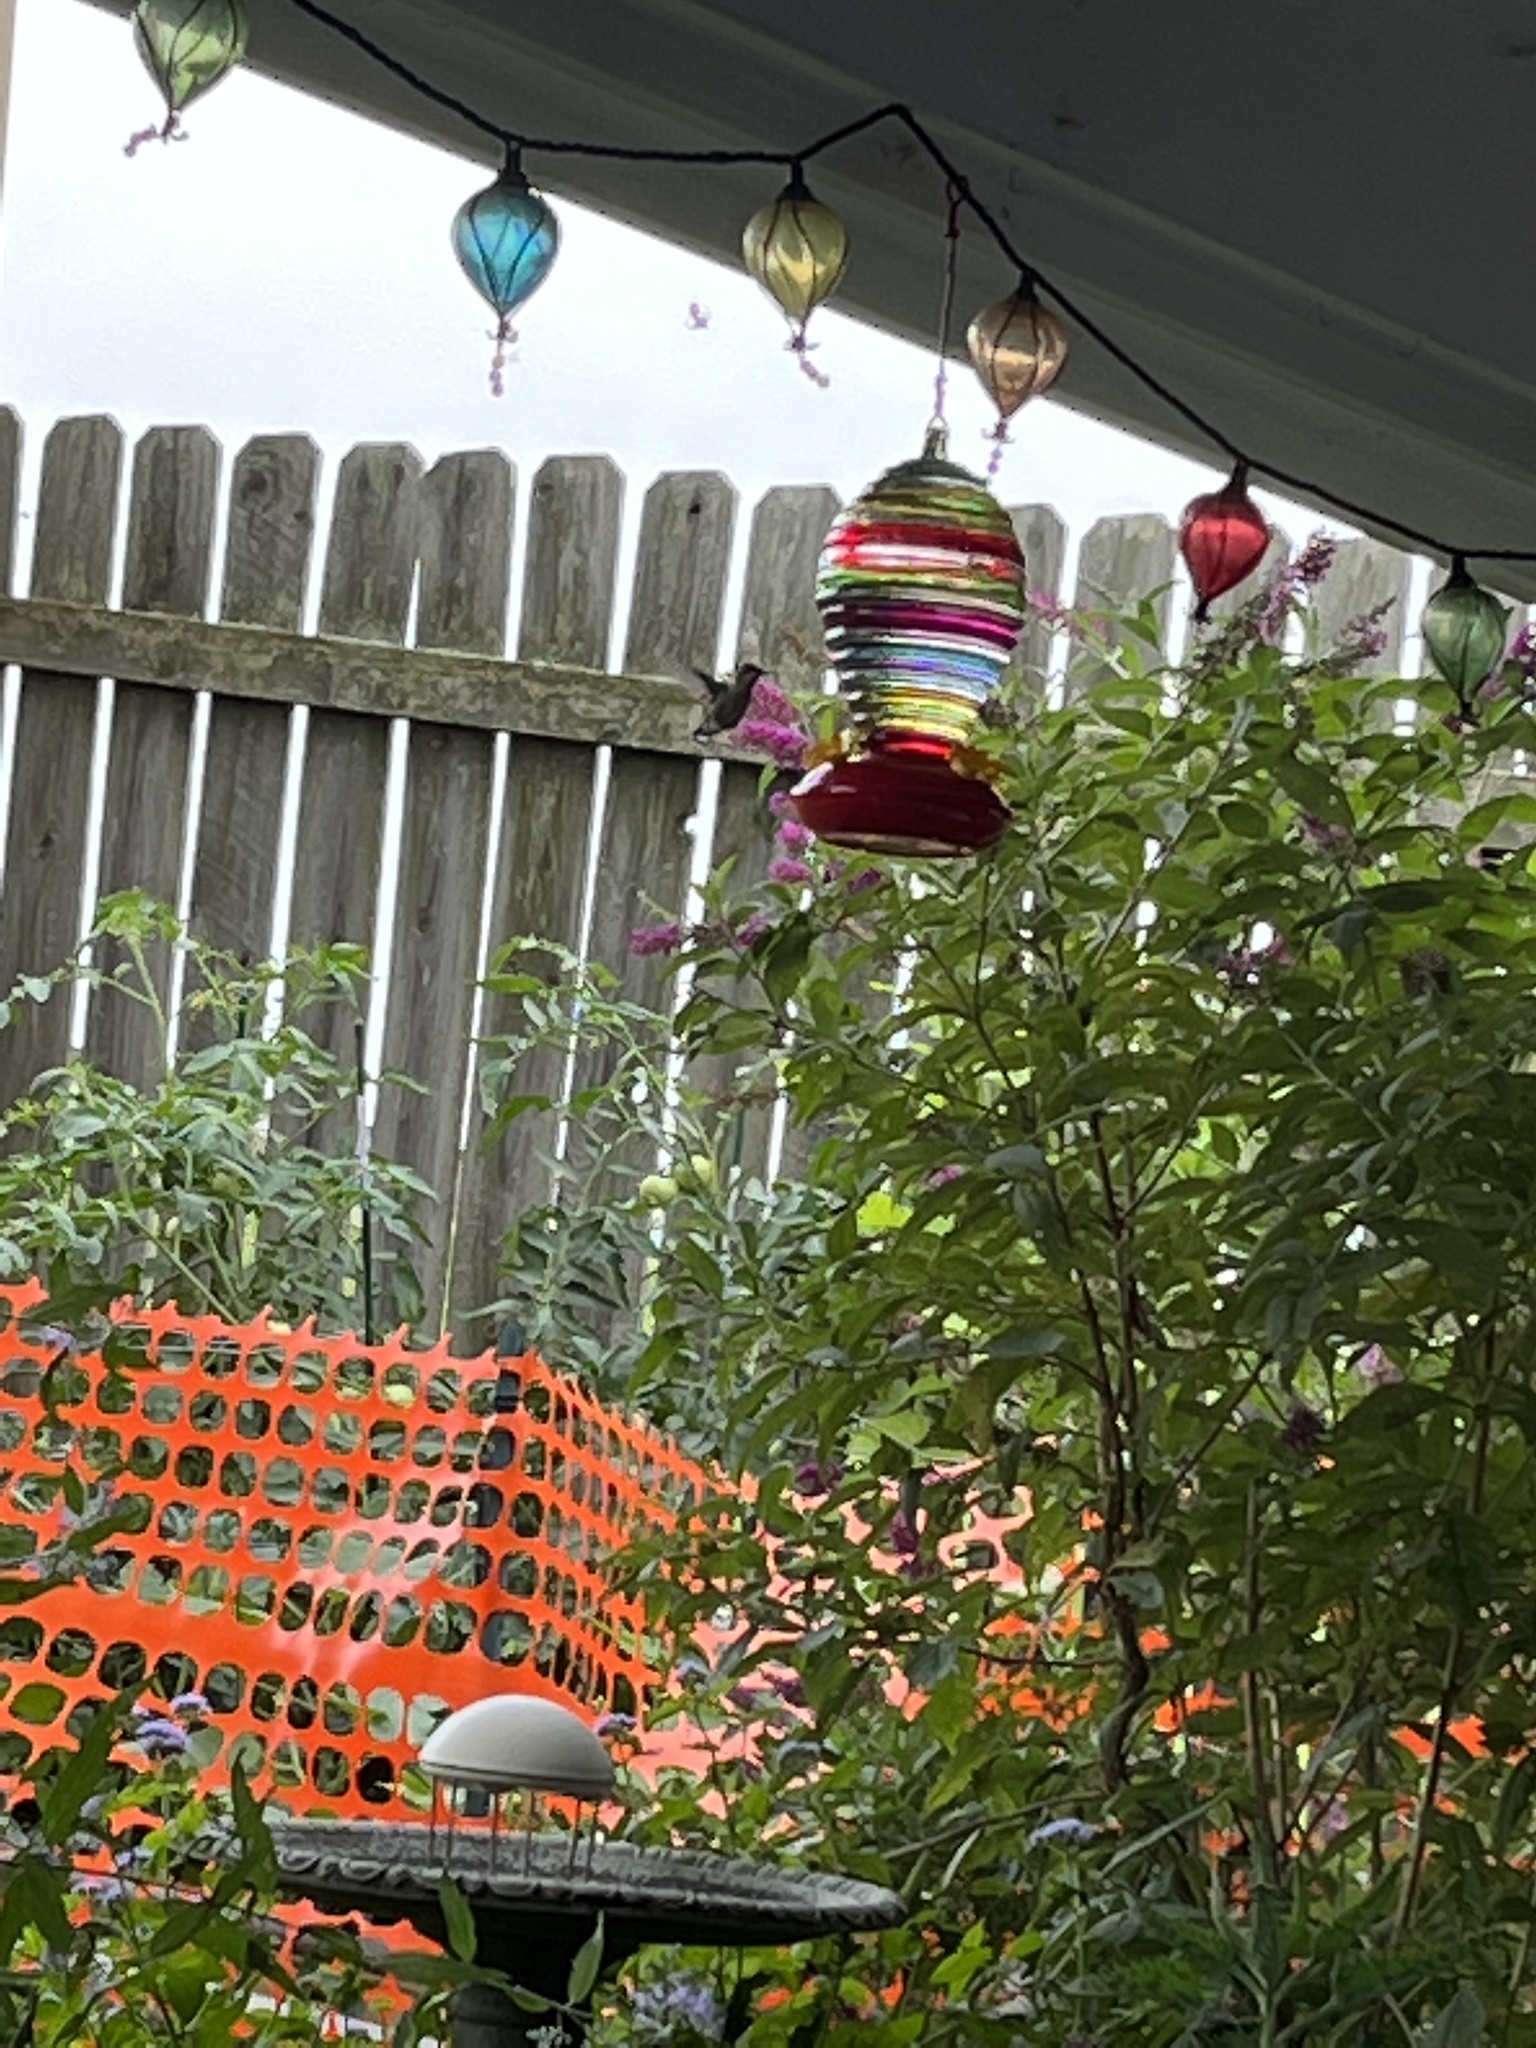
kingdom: Animalia
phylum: Chordata
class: Aves
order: Apodiformes
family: Trochilidae
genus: Archilochus
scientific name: Archilochus colubris
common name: Ruby-throated hummingbird
